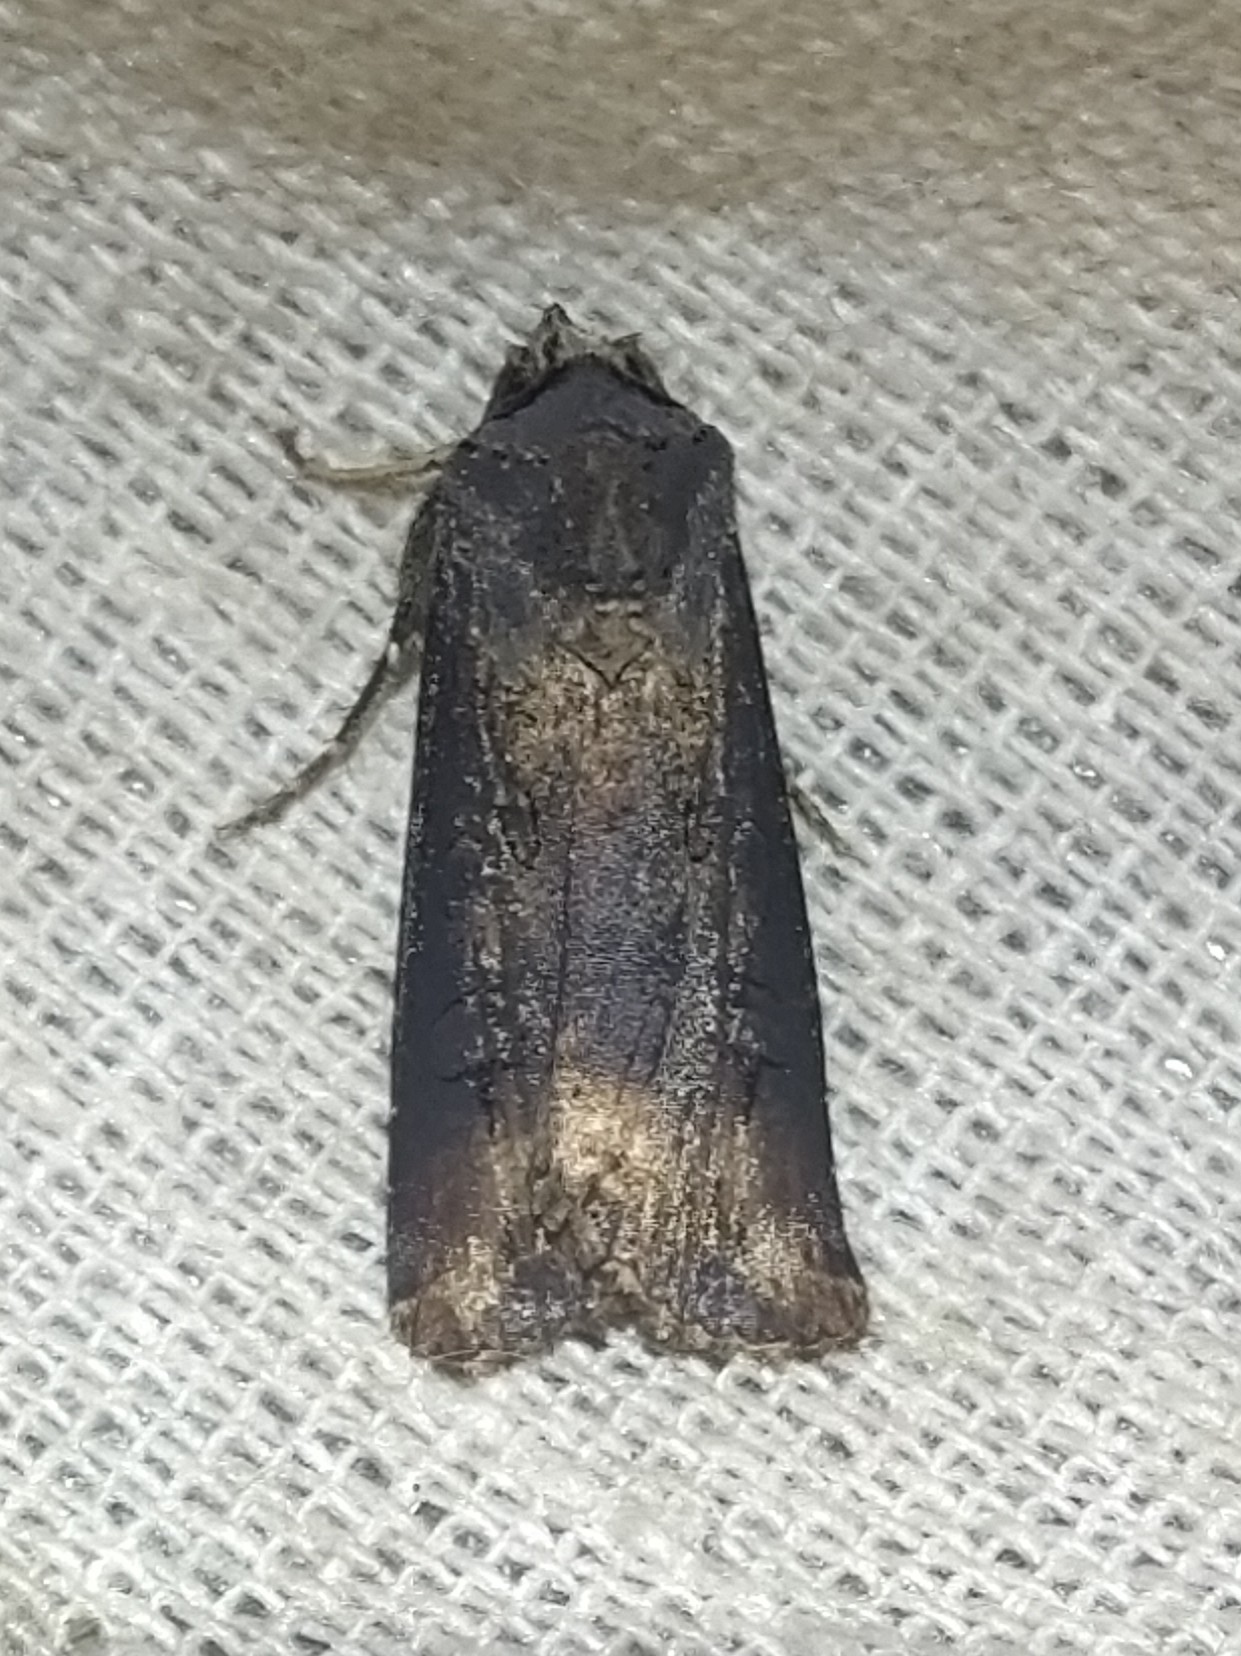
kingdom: Animalia
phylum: Arthropoda
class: Insecta
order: Lepidoptera
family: Noctuidae
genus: Agrotis
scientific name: Agrotis ipsilon
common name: Dark sword-grass
